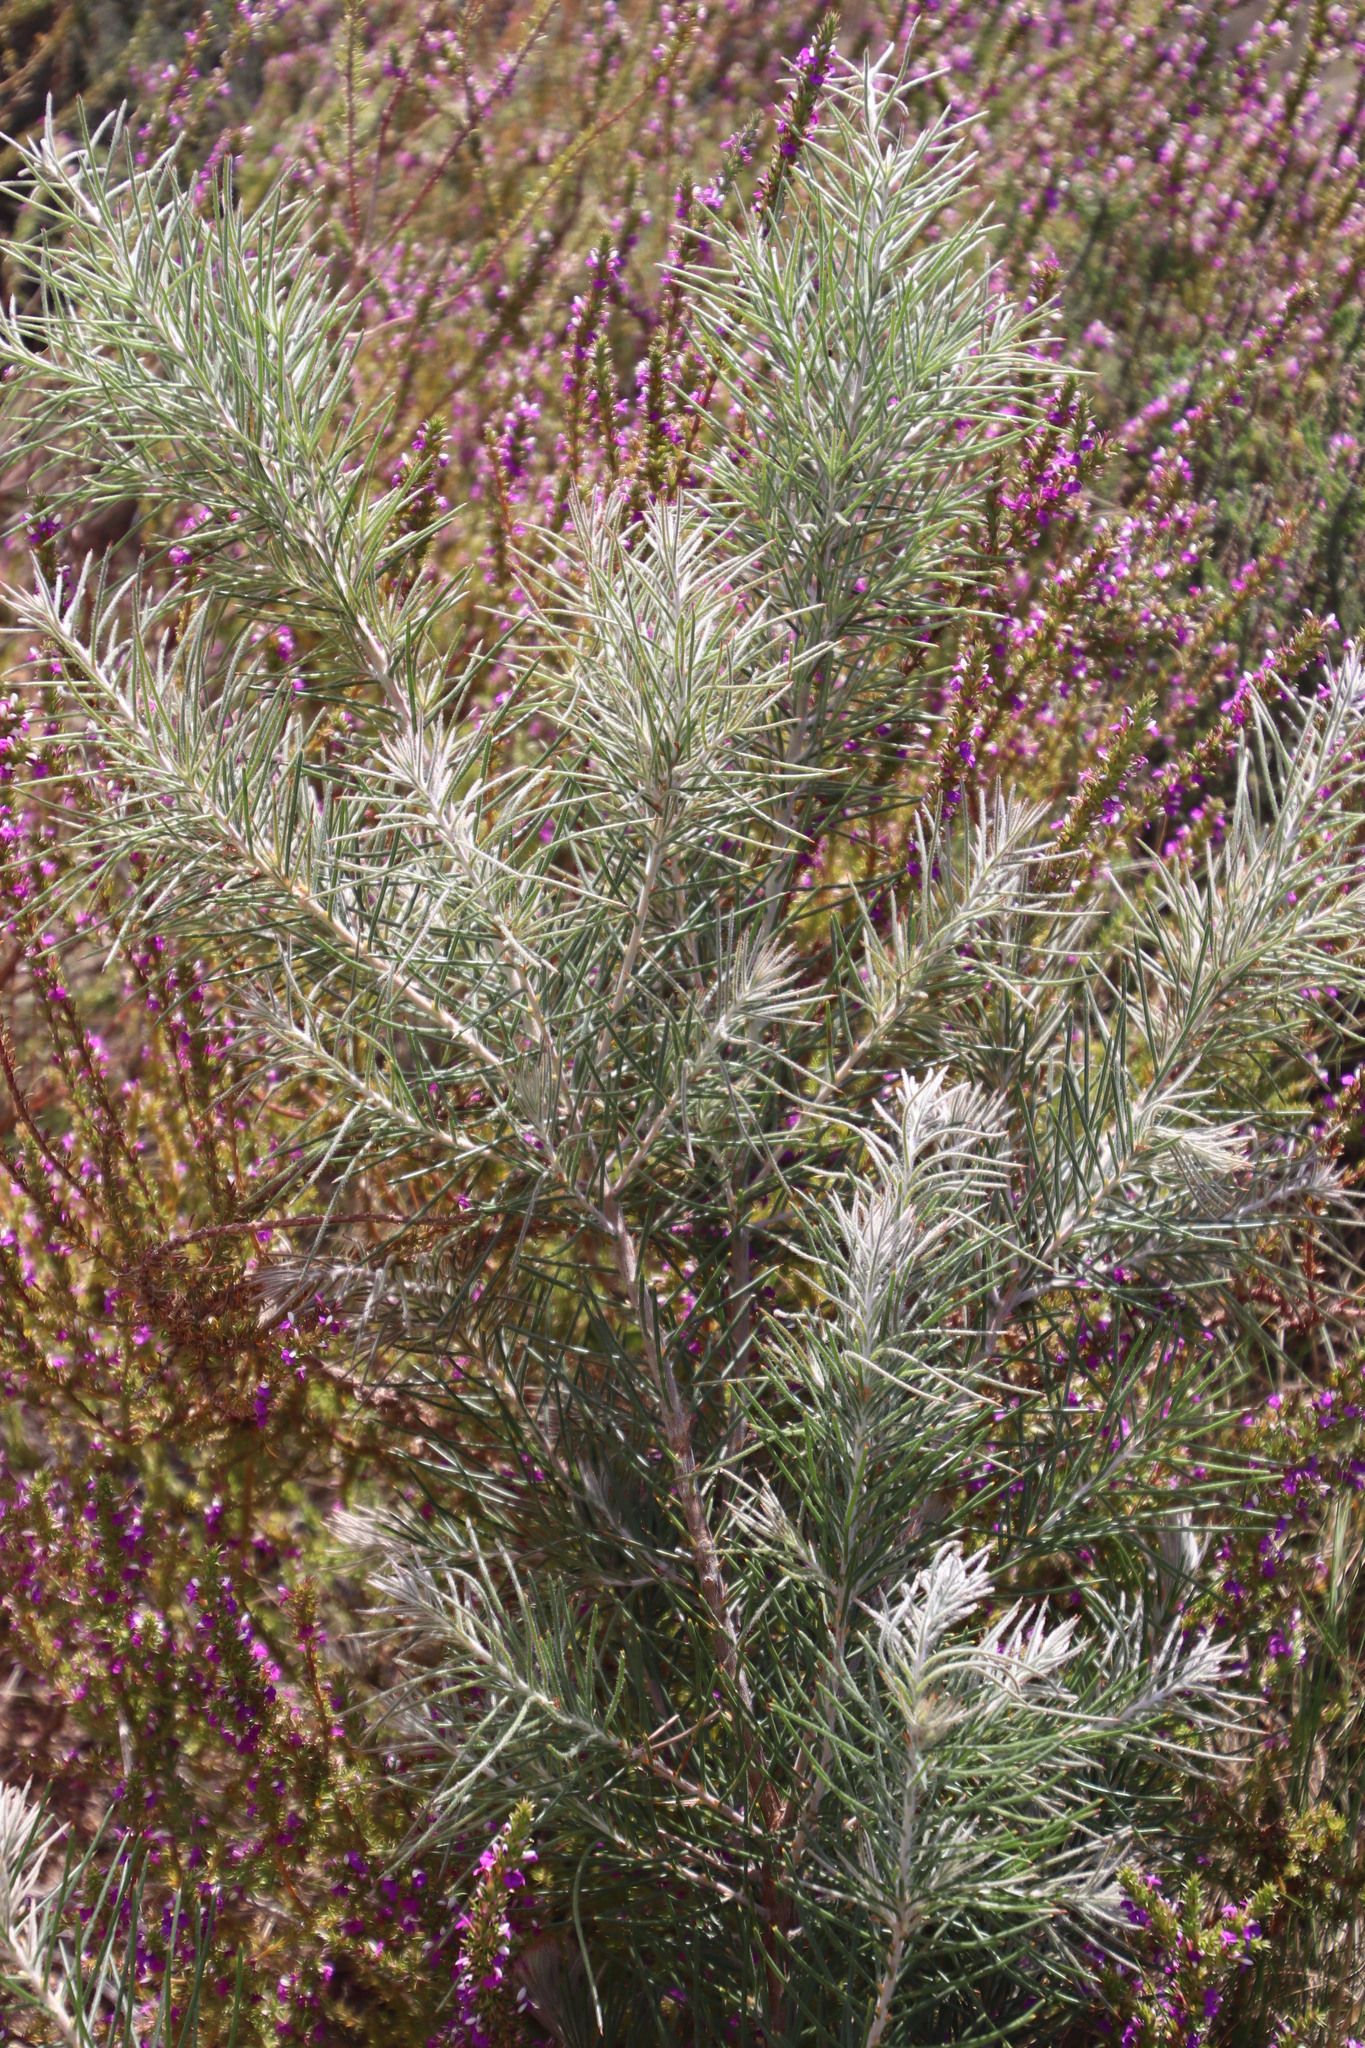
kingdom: Plantae
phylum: Tracheophyta
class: Magnoliopsida
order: Proteales
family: Proteaceae
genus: Hakea
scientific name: Hakea gibbosa
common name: Rock hakea
